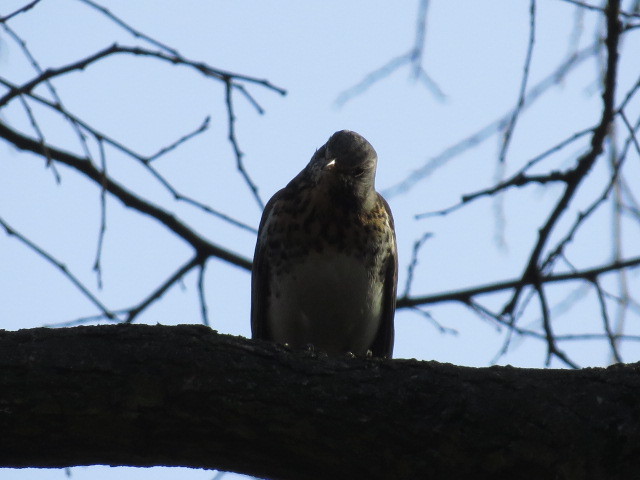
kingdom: Animalia
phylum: Chordata
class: Aves
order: Passeriformes
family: Turdidae
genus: Turdus
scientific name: Turdus pilaris
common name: Fieldfare
